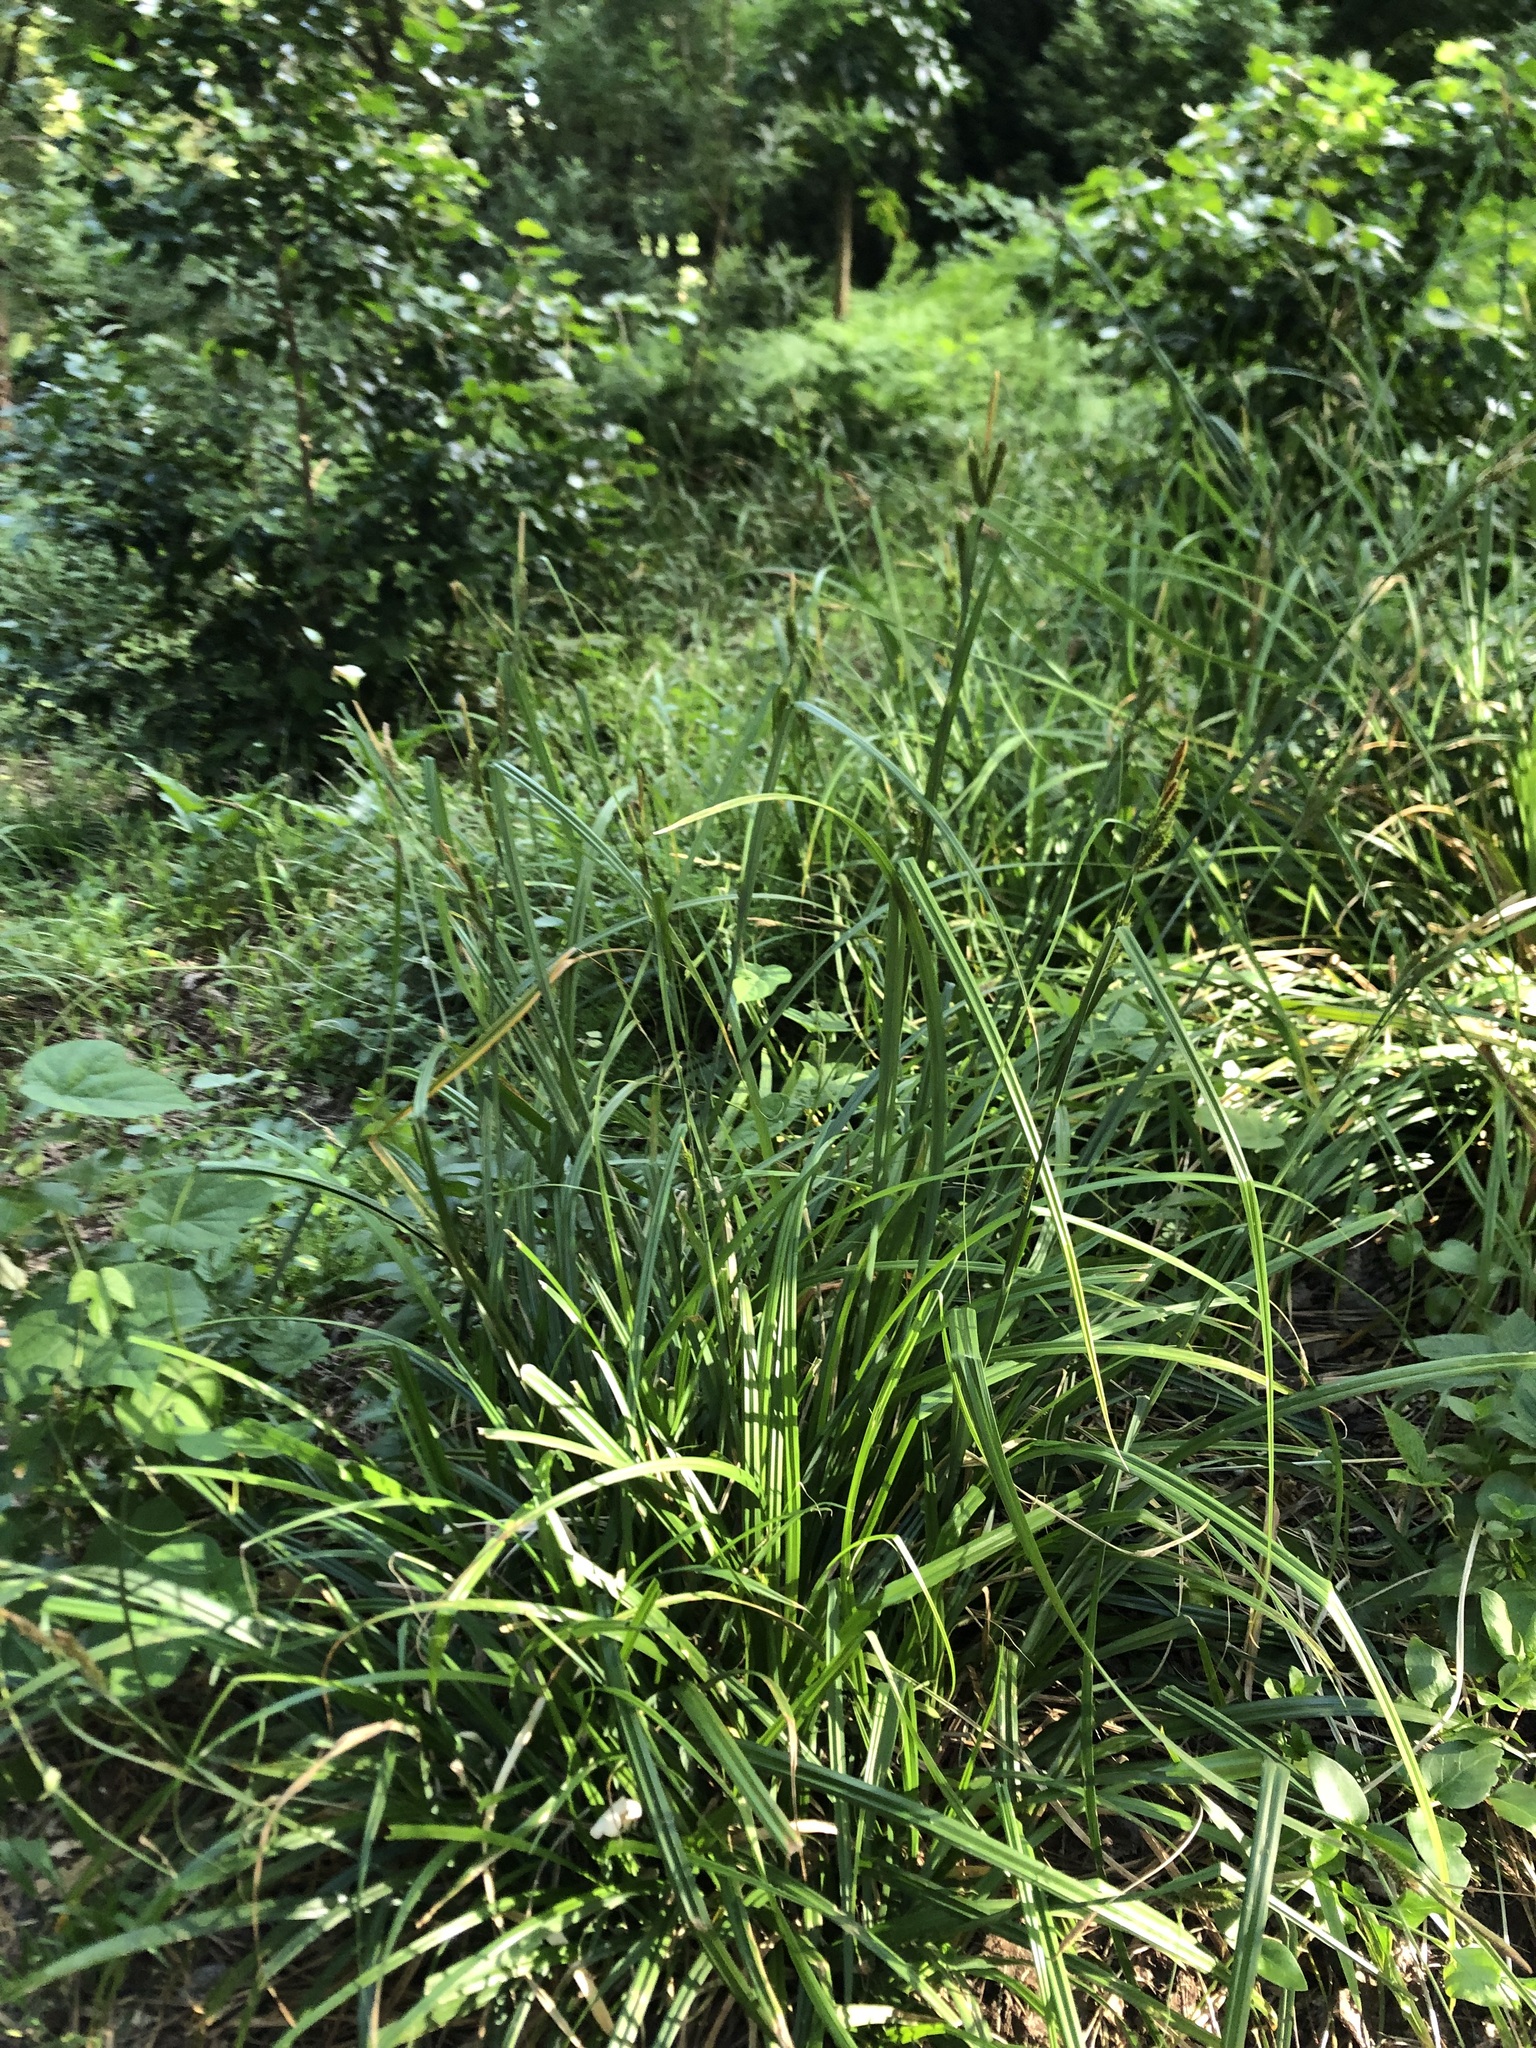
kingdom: Plantae
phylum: Tracheophyta
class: Liliopsida
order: Poales
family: Cyperaceae
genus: Carex
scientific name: Carex aethiopica
